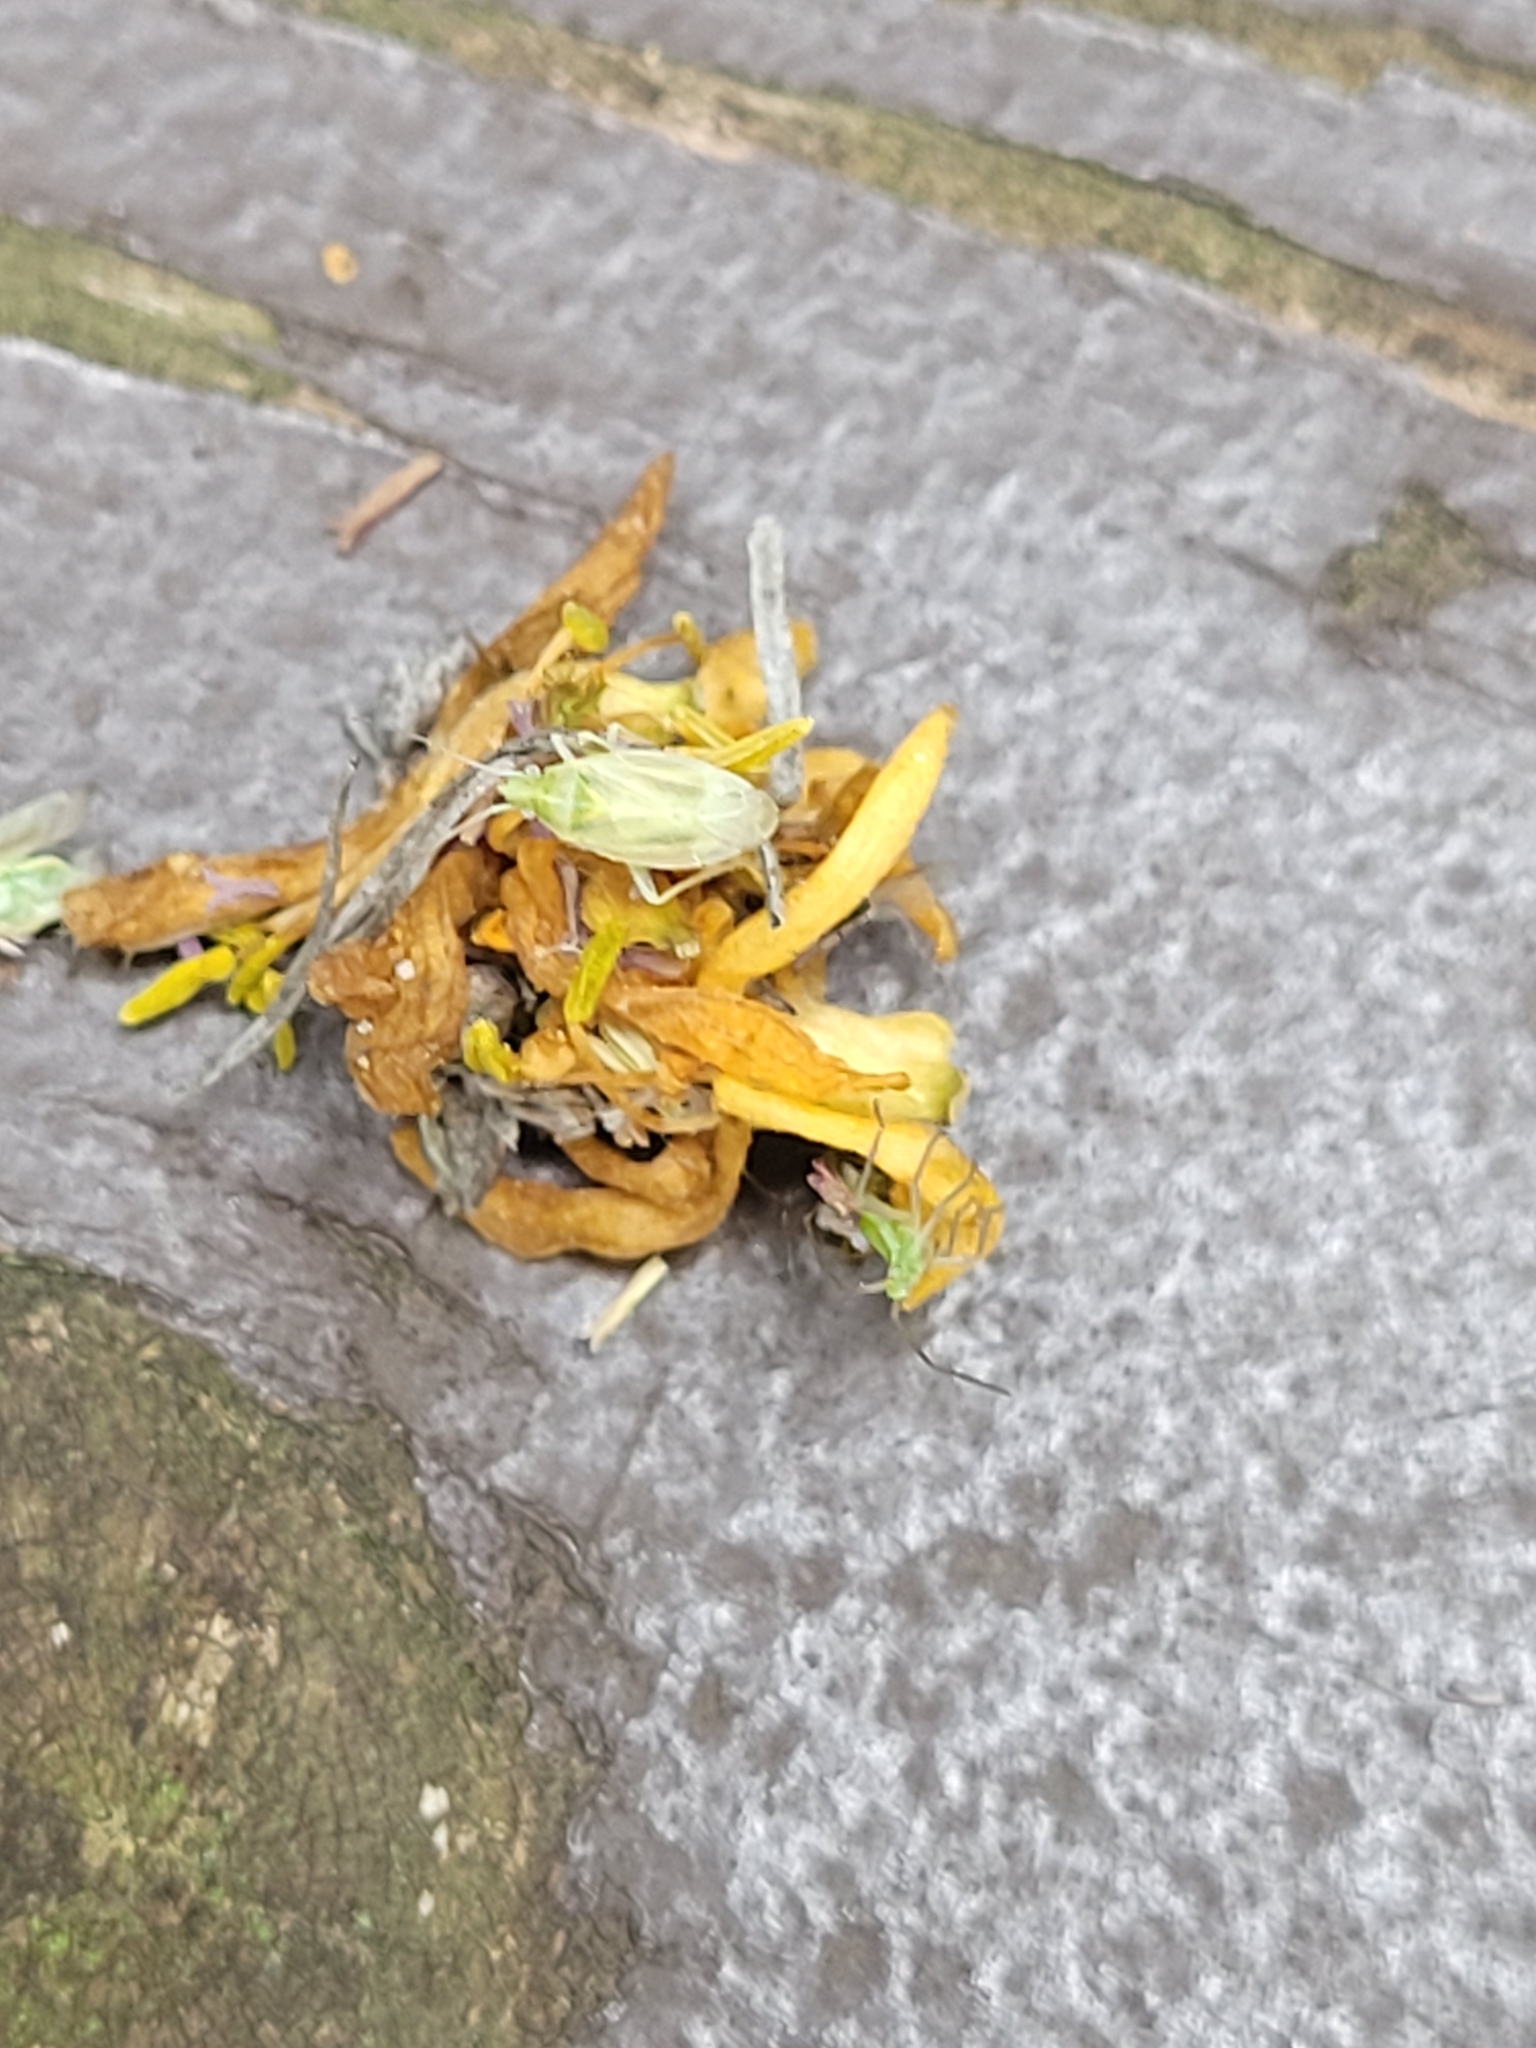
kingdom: Animalia
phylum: Arthropoda
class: Insecta
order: Hemiptera
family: Miridae
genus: Amblytylus
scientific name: Amblytylus nasutus
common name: Plant bug
